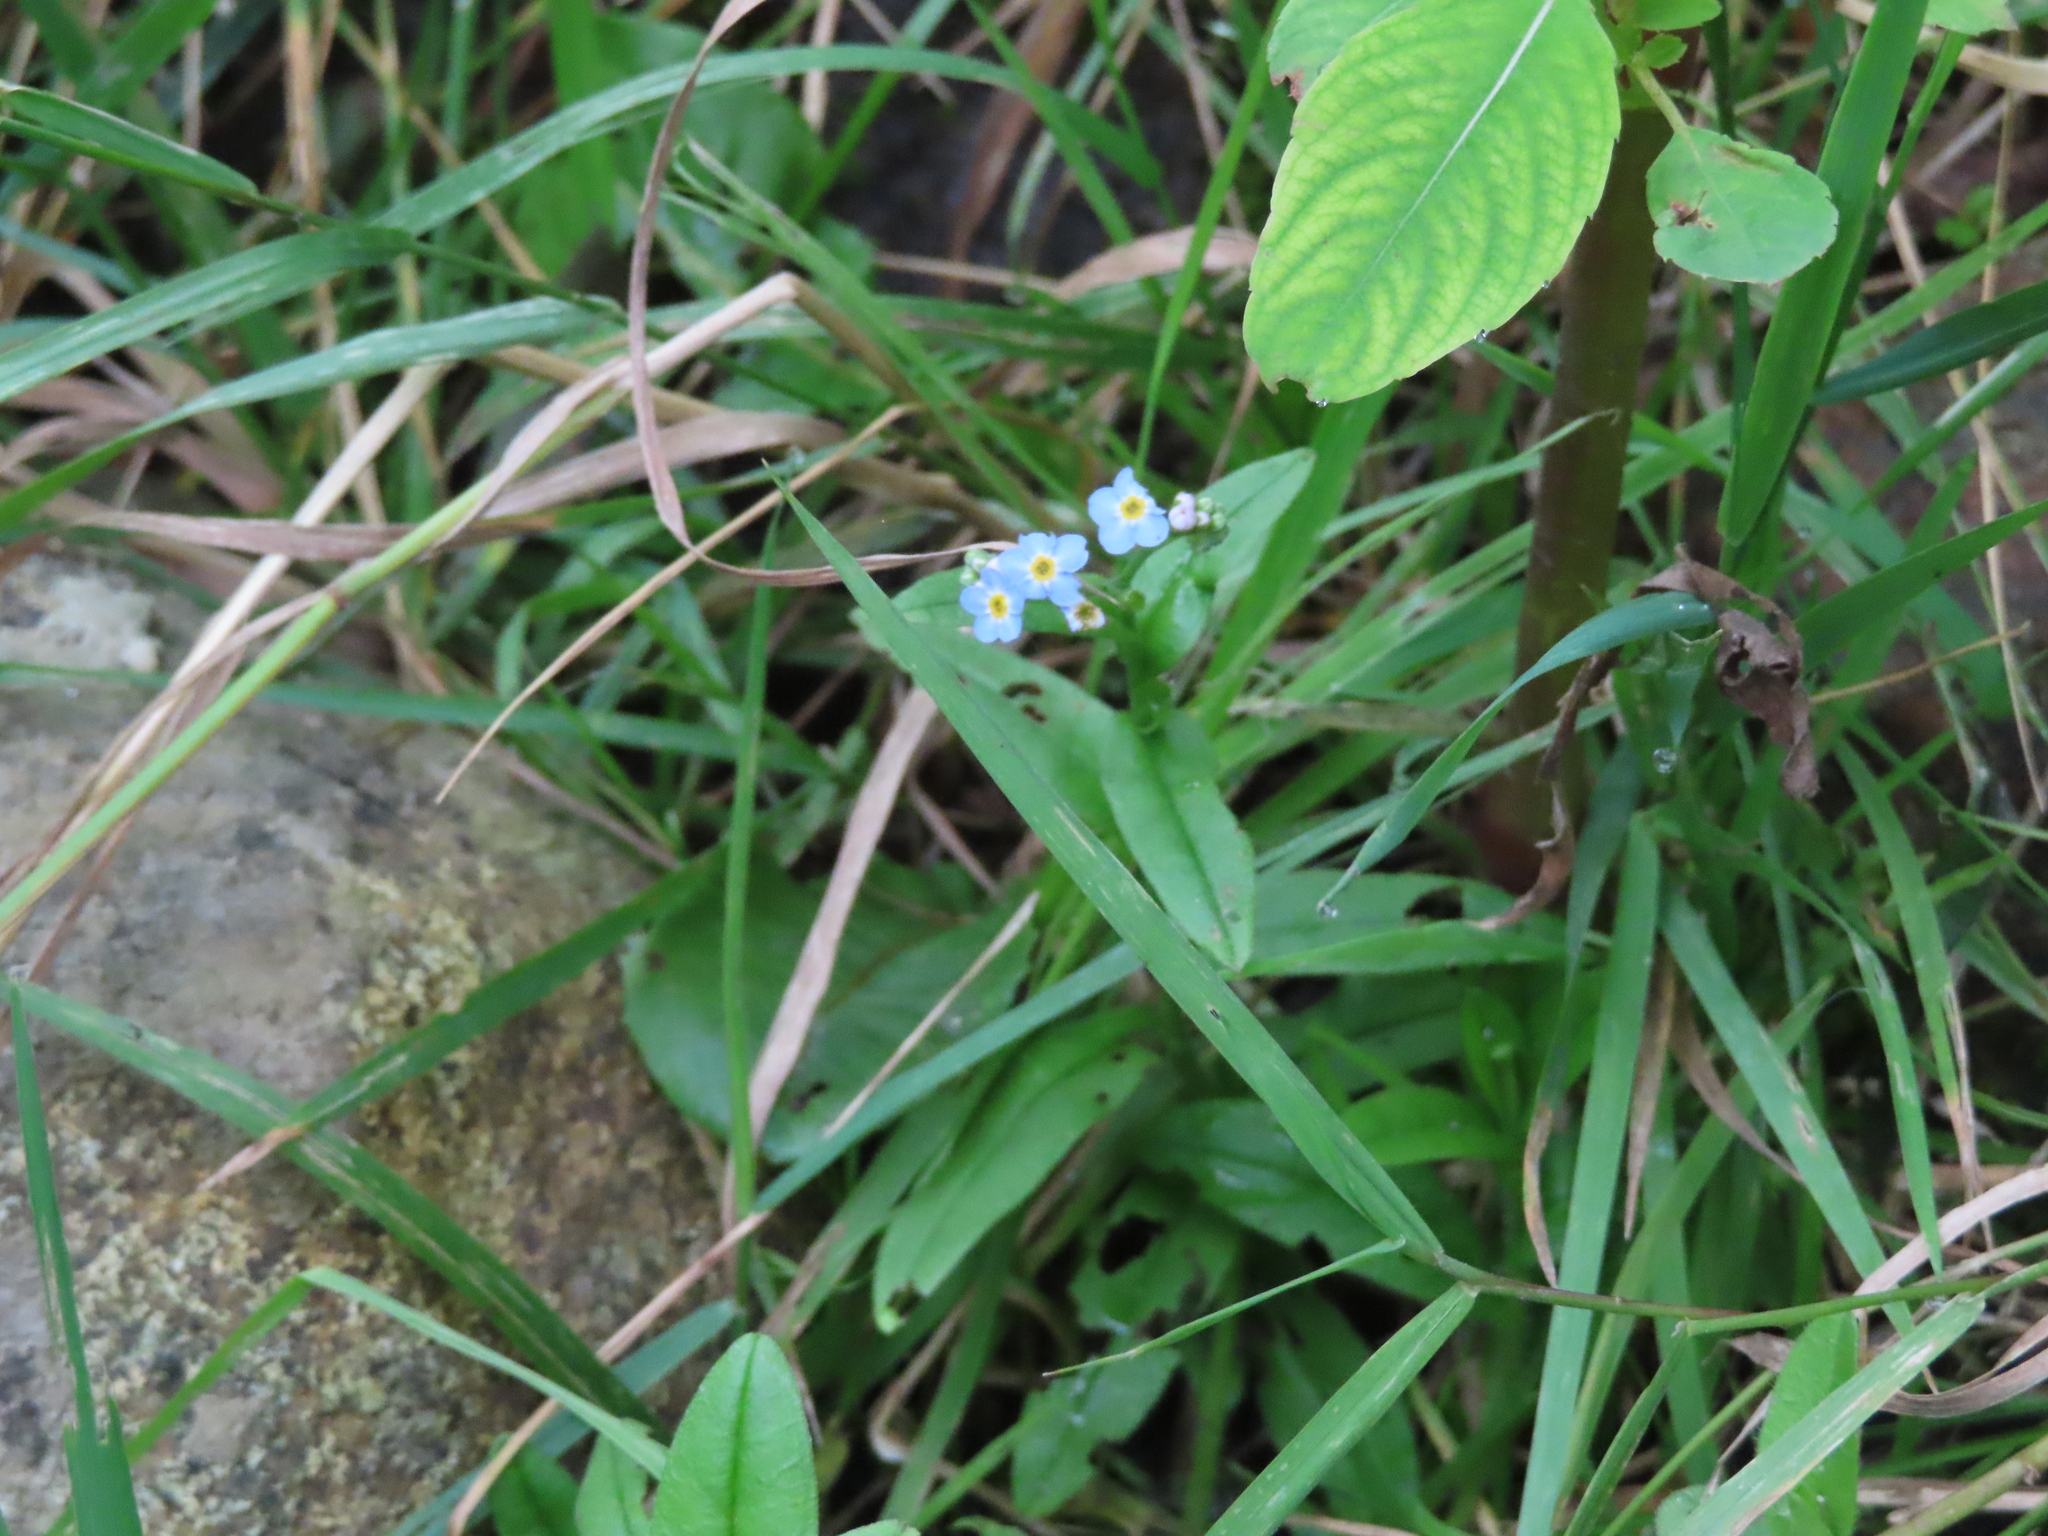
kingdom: Plantae
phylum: Tracheophyta
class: Magnoliopsida
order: Boraginales
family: Boraginaceae
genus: Myosotis
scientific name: Myosotis scorpioides
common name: Water forget-me-not
